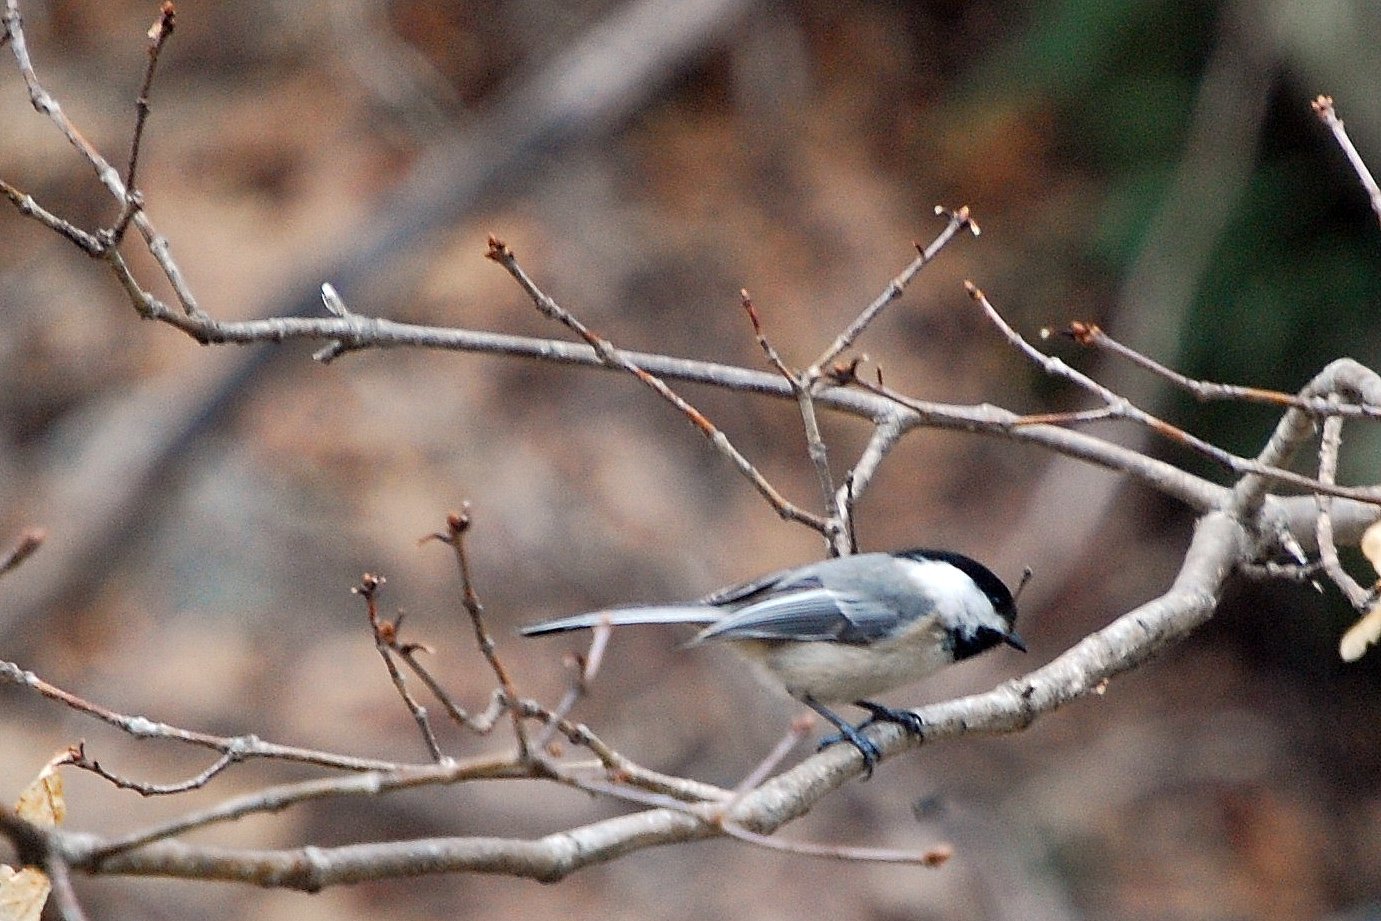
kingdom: Animalia
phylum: Chordata
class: Aves
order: Passeriformes
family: Paridae
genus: Poecile
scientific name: Poecile atricapillus
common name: Black-capped chickadee
